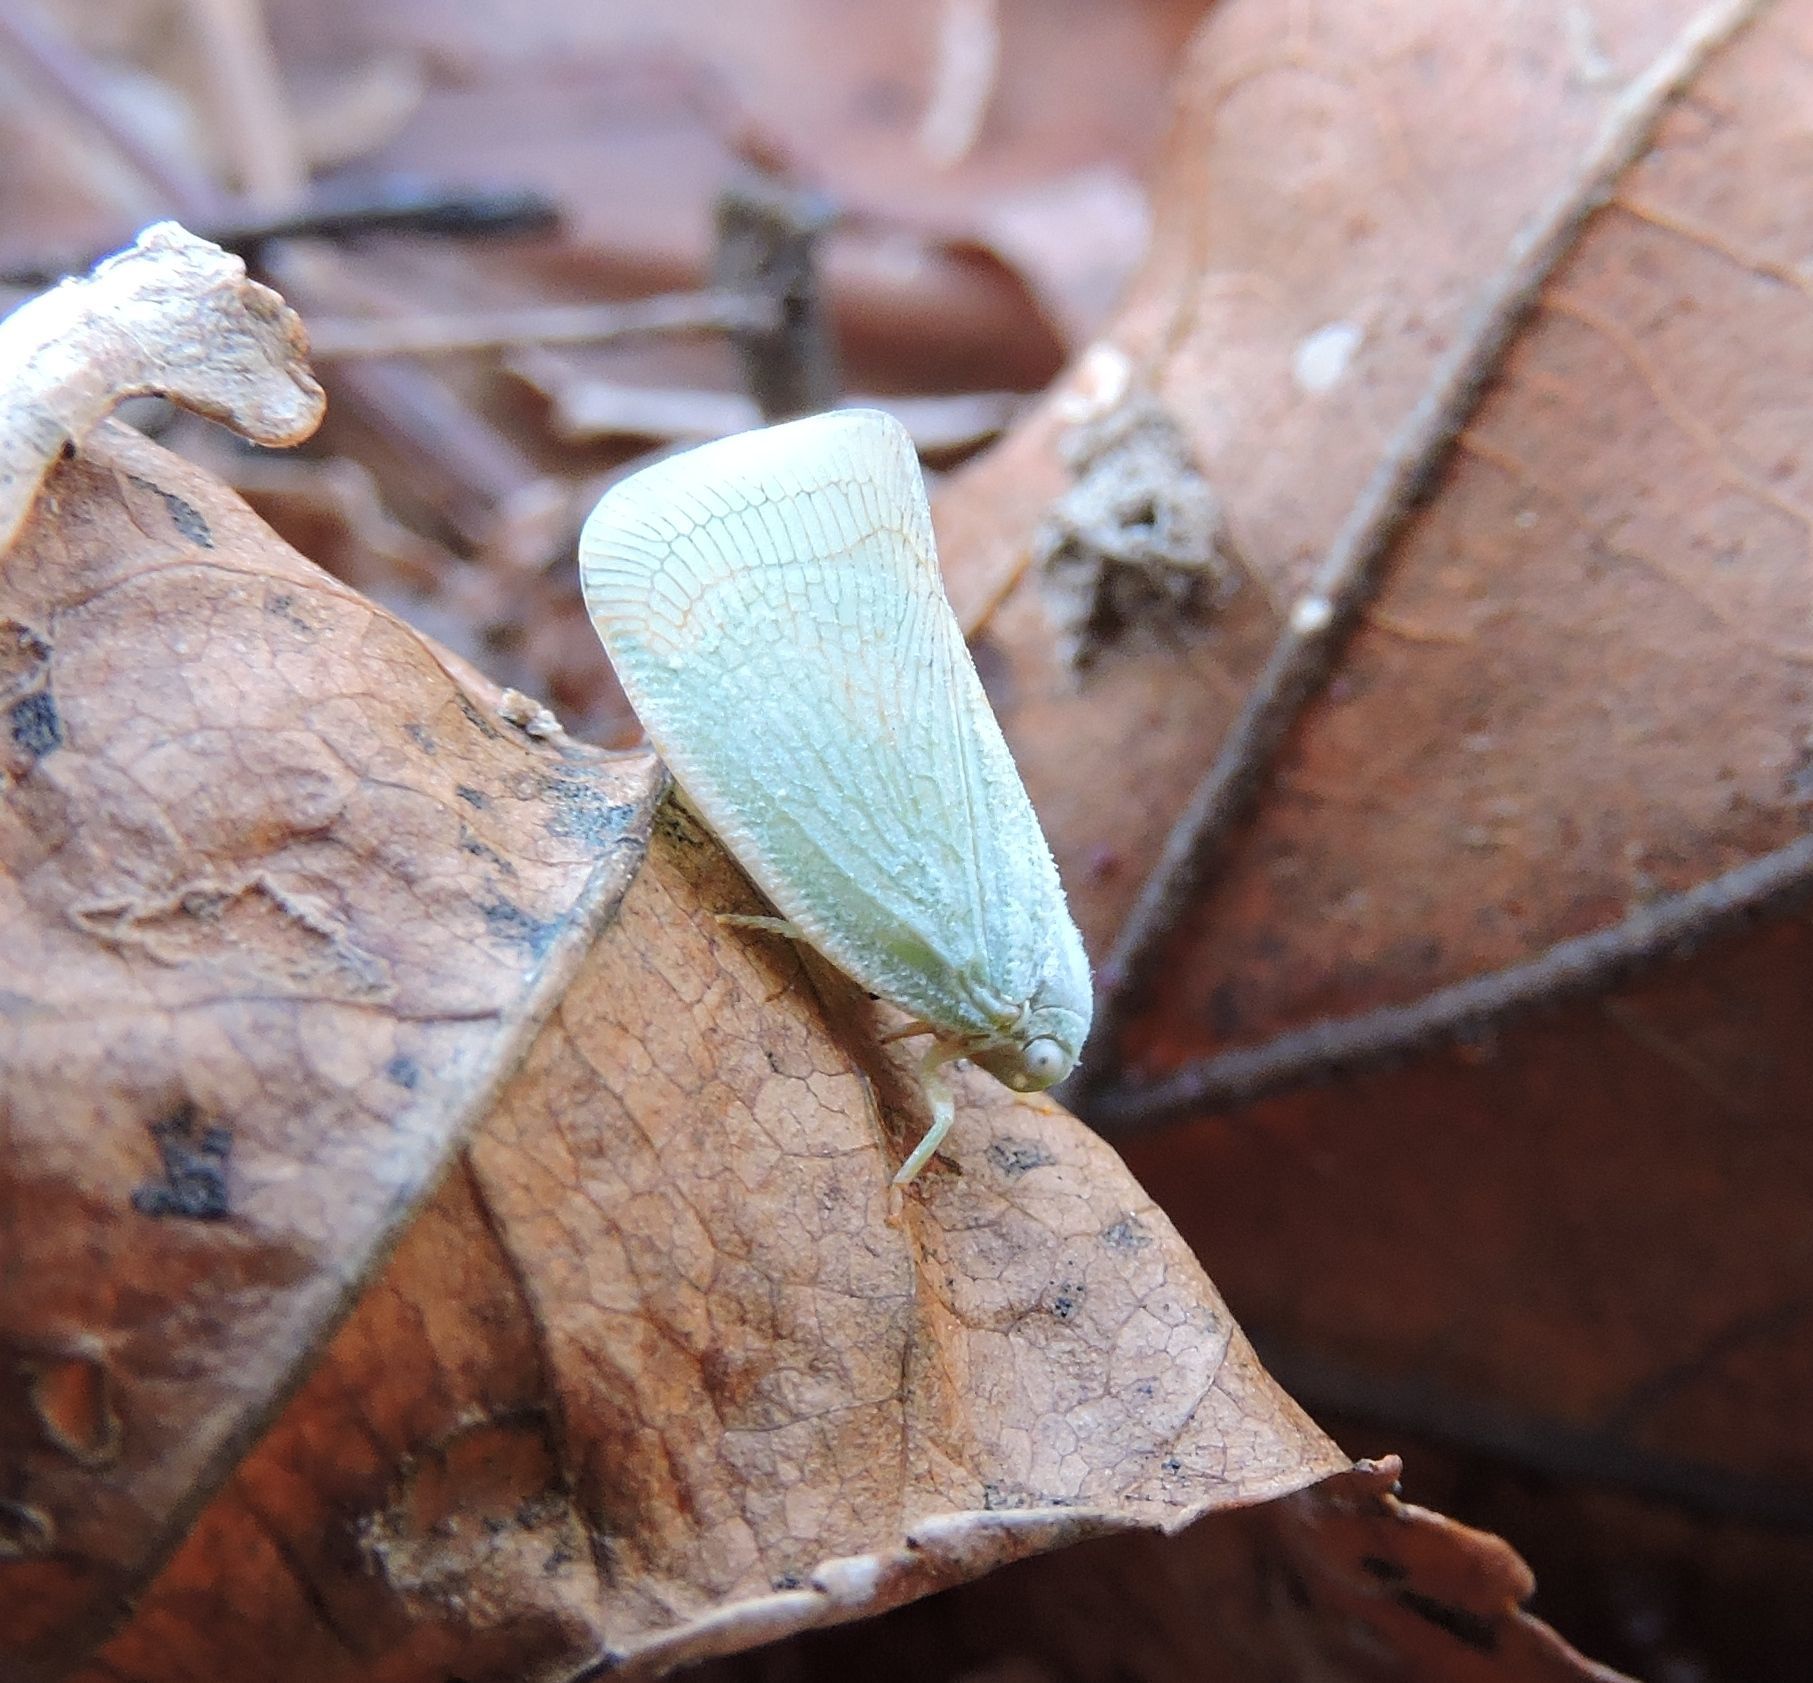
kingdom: Animalia
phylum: Arthropoda
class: Insecta
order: Hemiptera
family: Flatidae
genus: Flatormenis
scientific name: Flatormenis proxima
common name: Northern flatid planthopper
